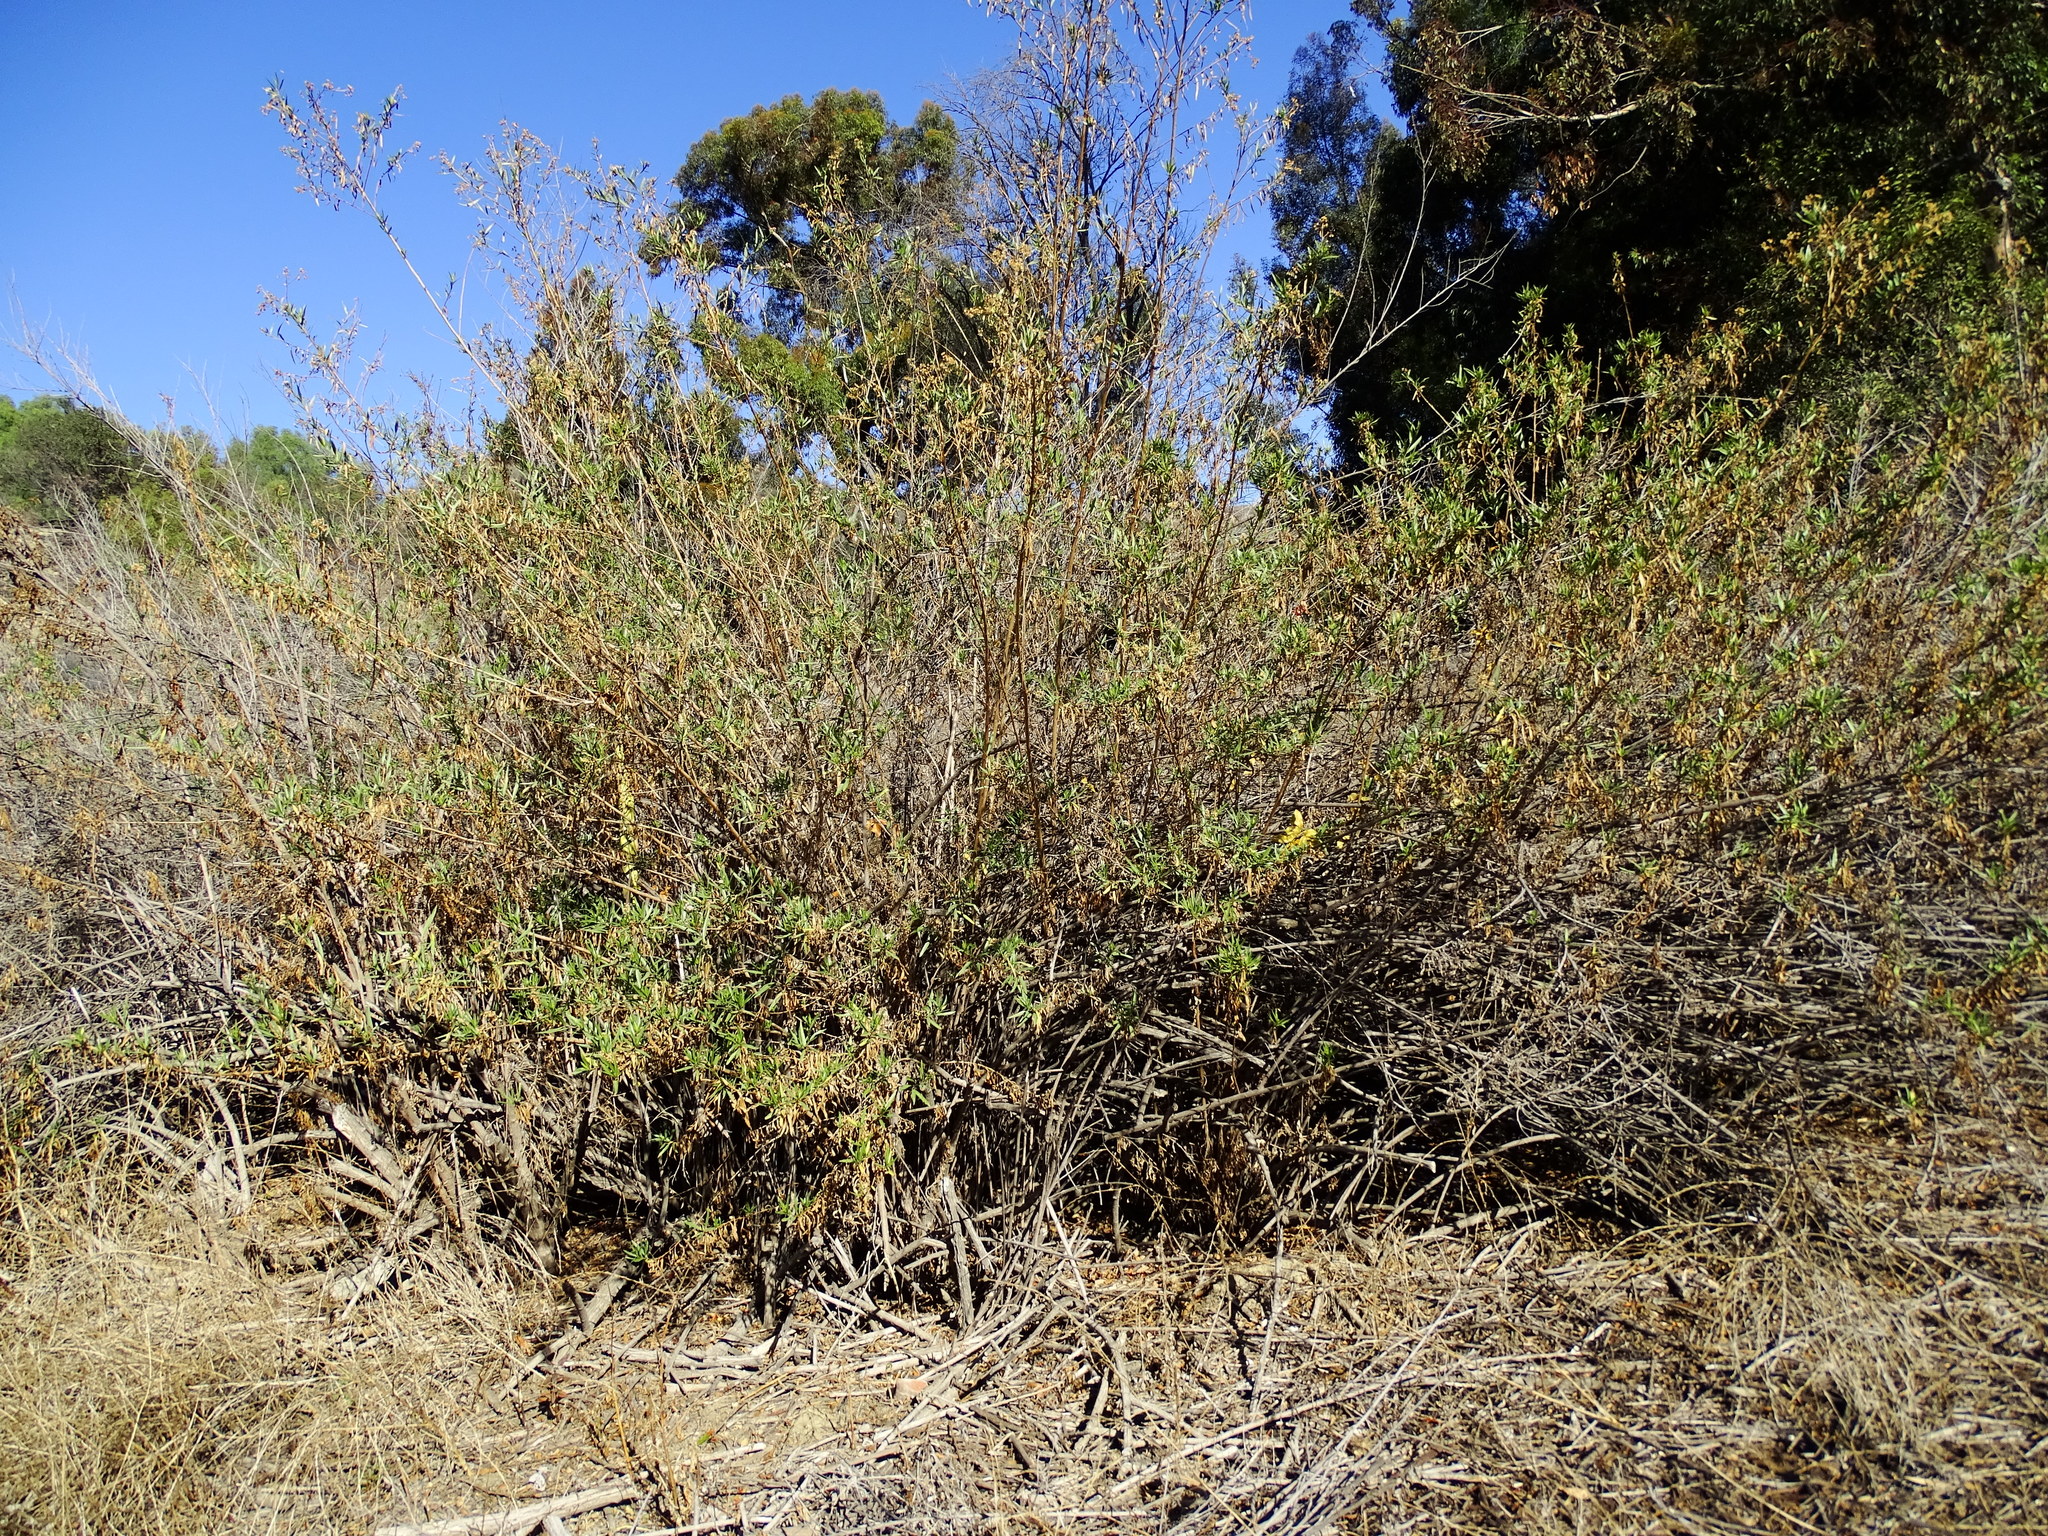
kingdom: Plantae
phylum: Tracheophyta
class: Magnoliopsida
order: Asterales
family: Asteraceae
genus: Baccharis
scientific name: Baccharis salicifolia
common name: Sticky baccharis
